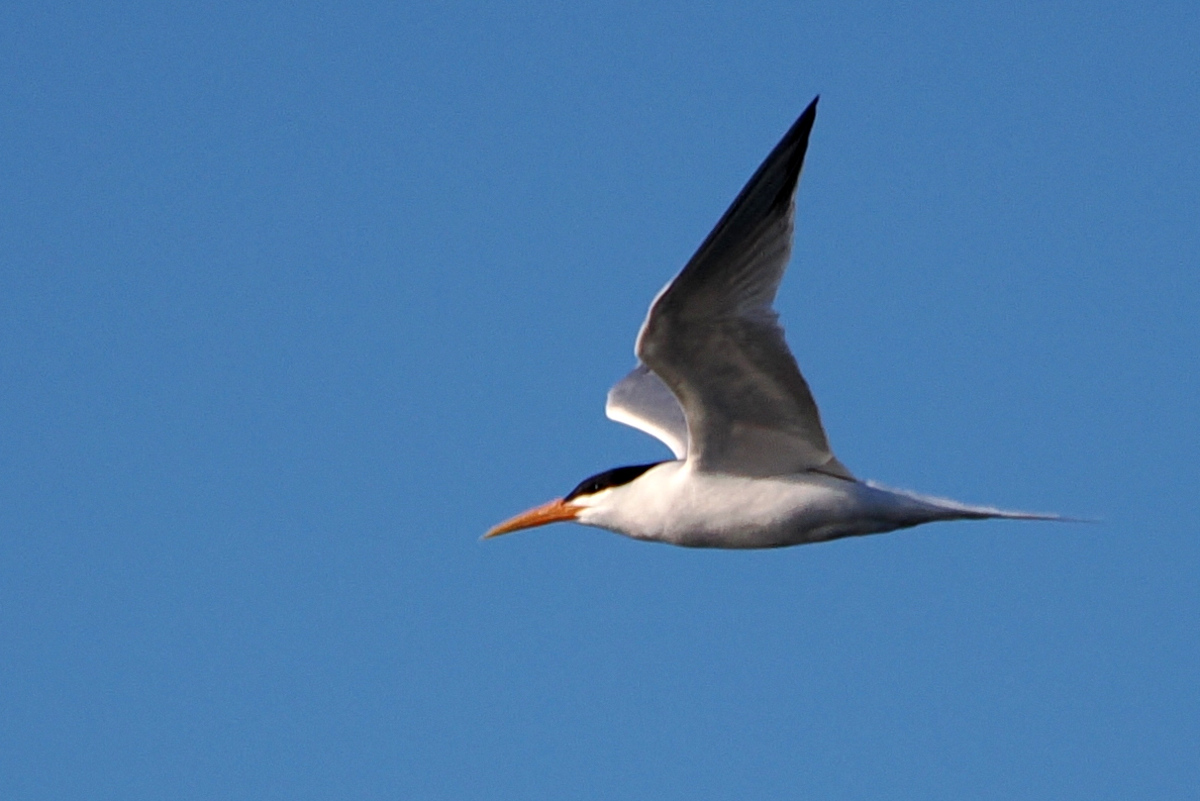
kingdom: Animalia
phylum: Chordata
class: Aves
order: Charadriiformes
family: Laridae
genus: Thalasseus
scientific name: Thalasseus elegans
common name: Elegant tern
